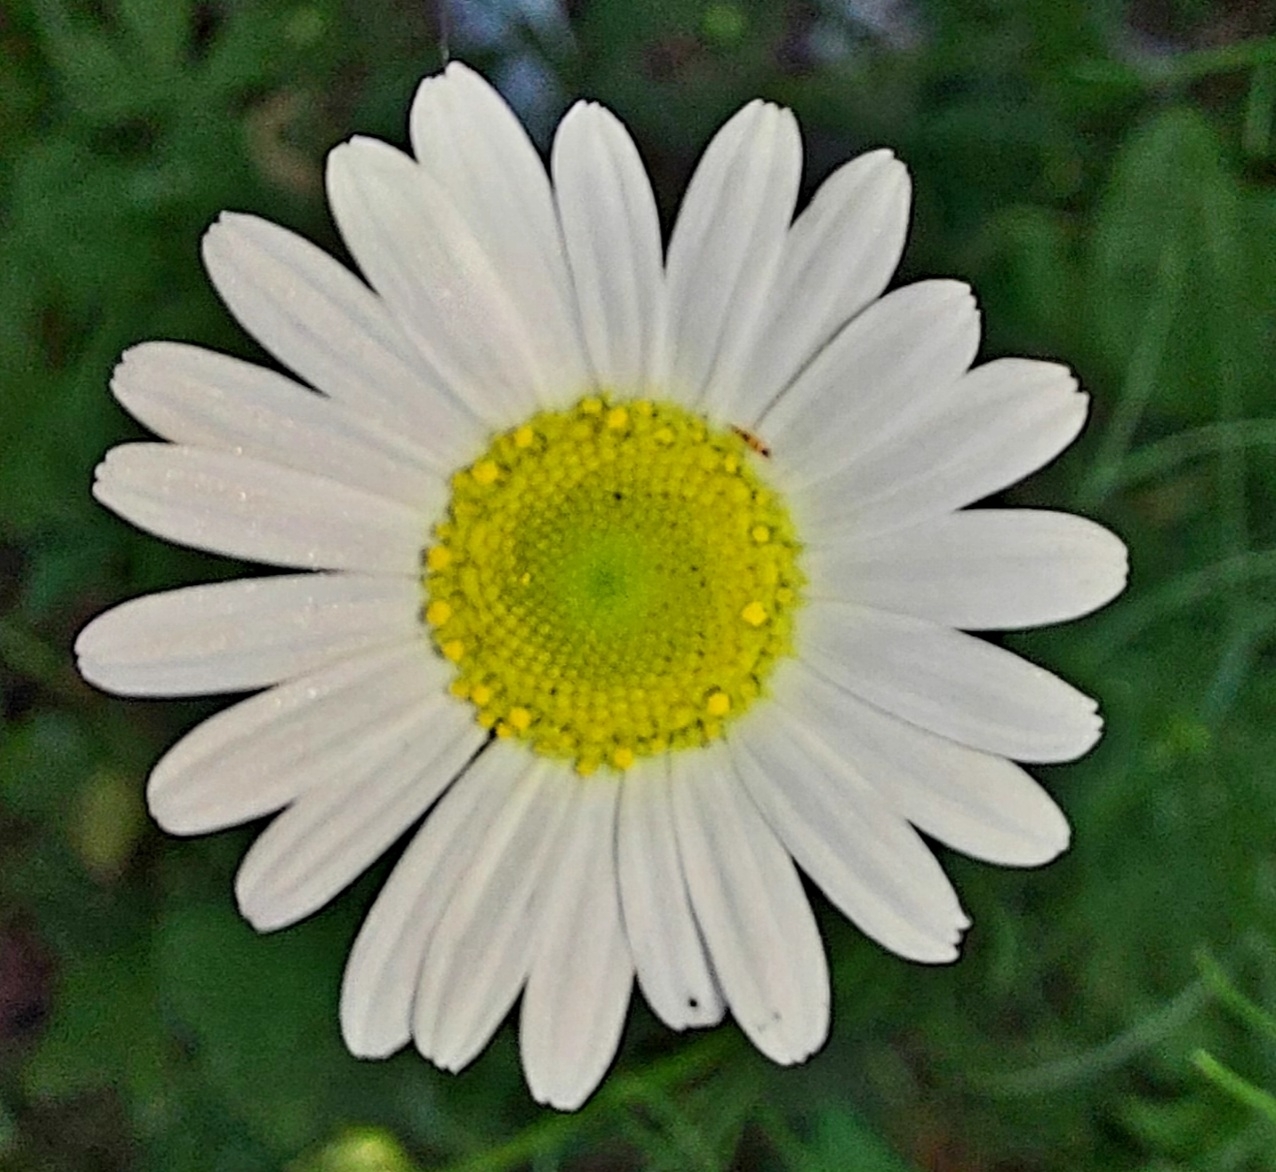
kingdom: Plantae
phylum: Tracheophyta
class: Magnoliopsida
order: Asterales
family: Asteraceae
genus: Tripleurospermum
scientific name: Tripleurospermum inodorum
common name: Scentless mayweed
